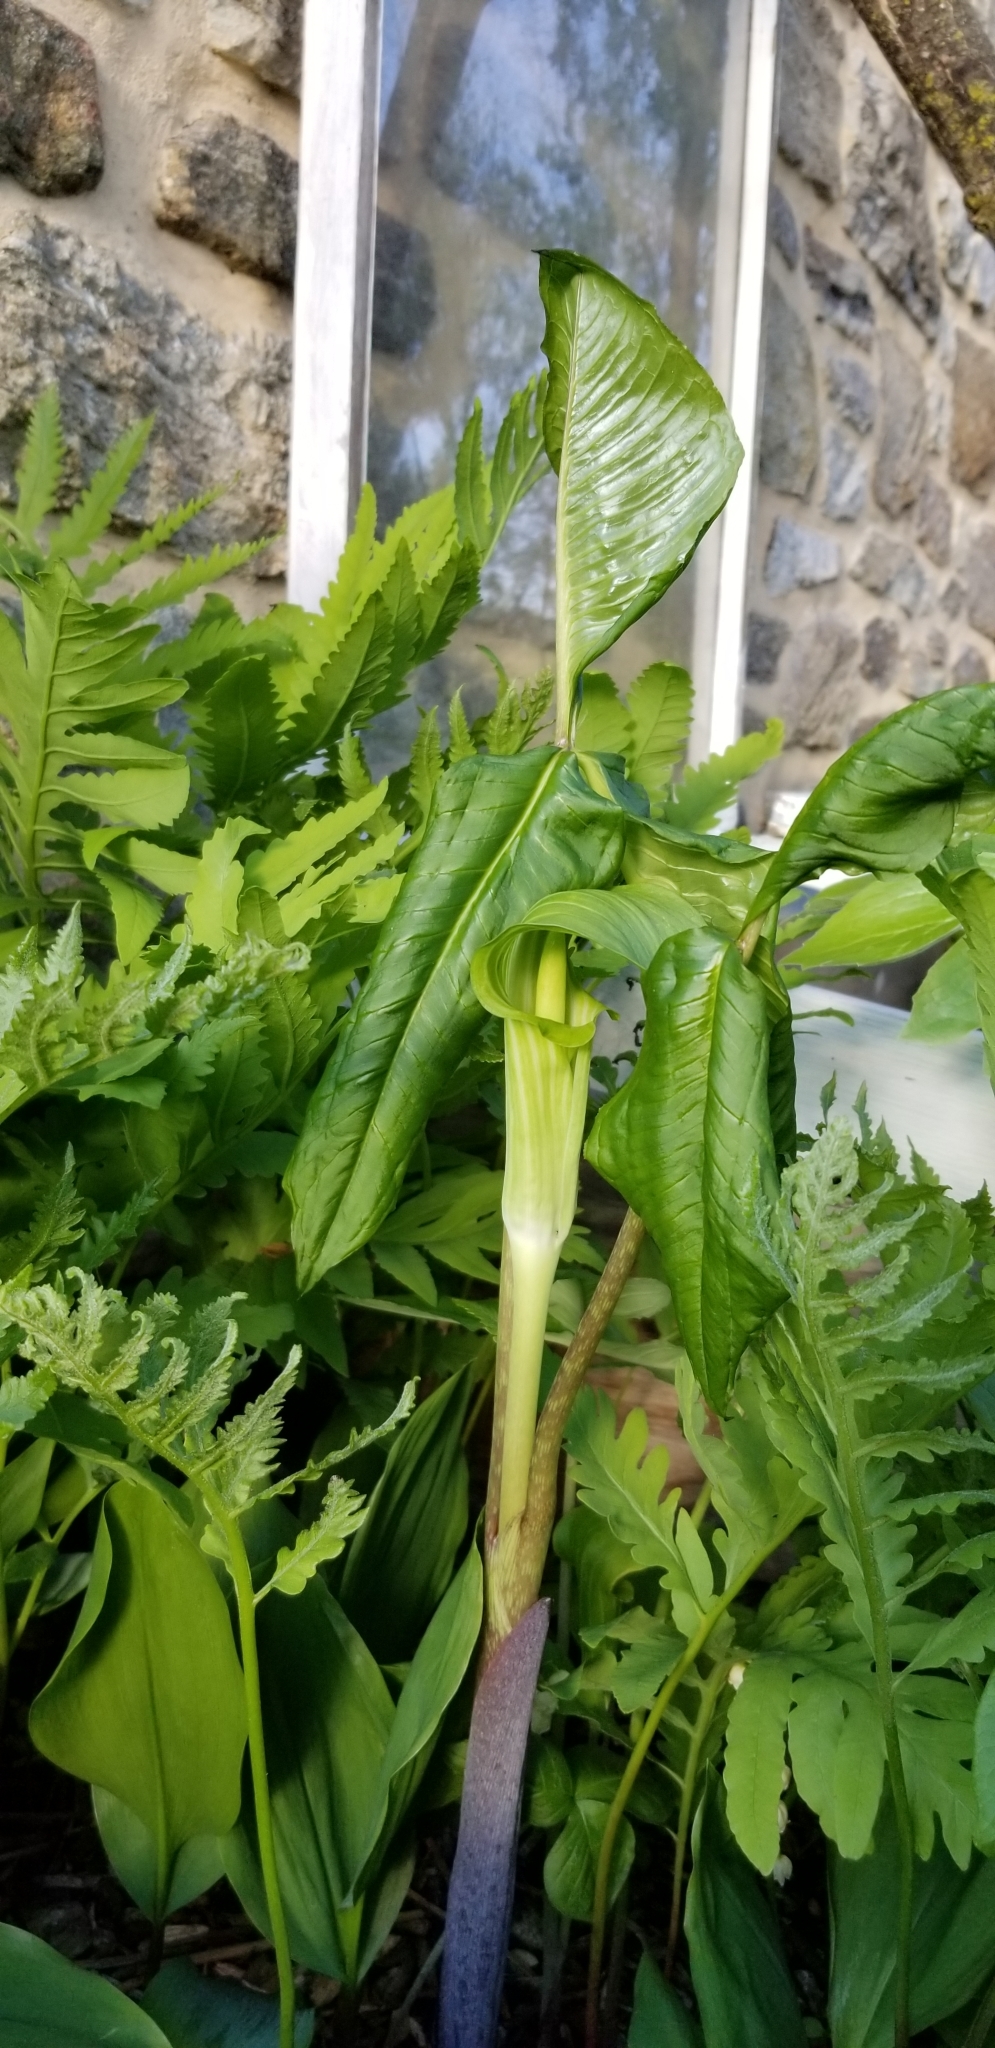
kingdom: Plantae
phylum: Tracheophyta
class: Liliopsida
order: Alismatales
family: Araceae
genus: Arisaema
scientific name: Arisaema triphyllum
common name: Jack-in-the-pulpit
